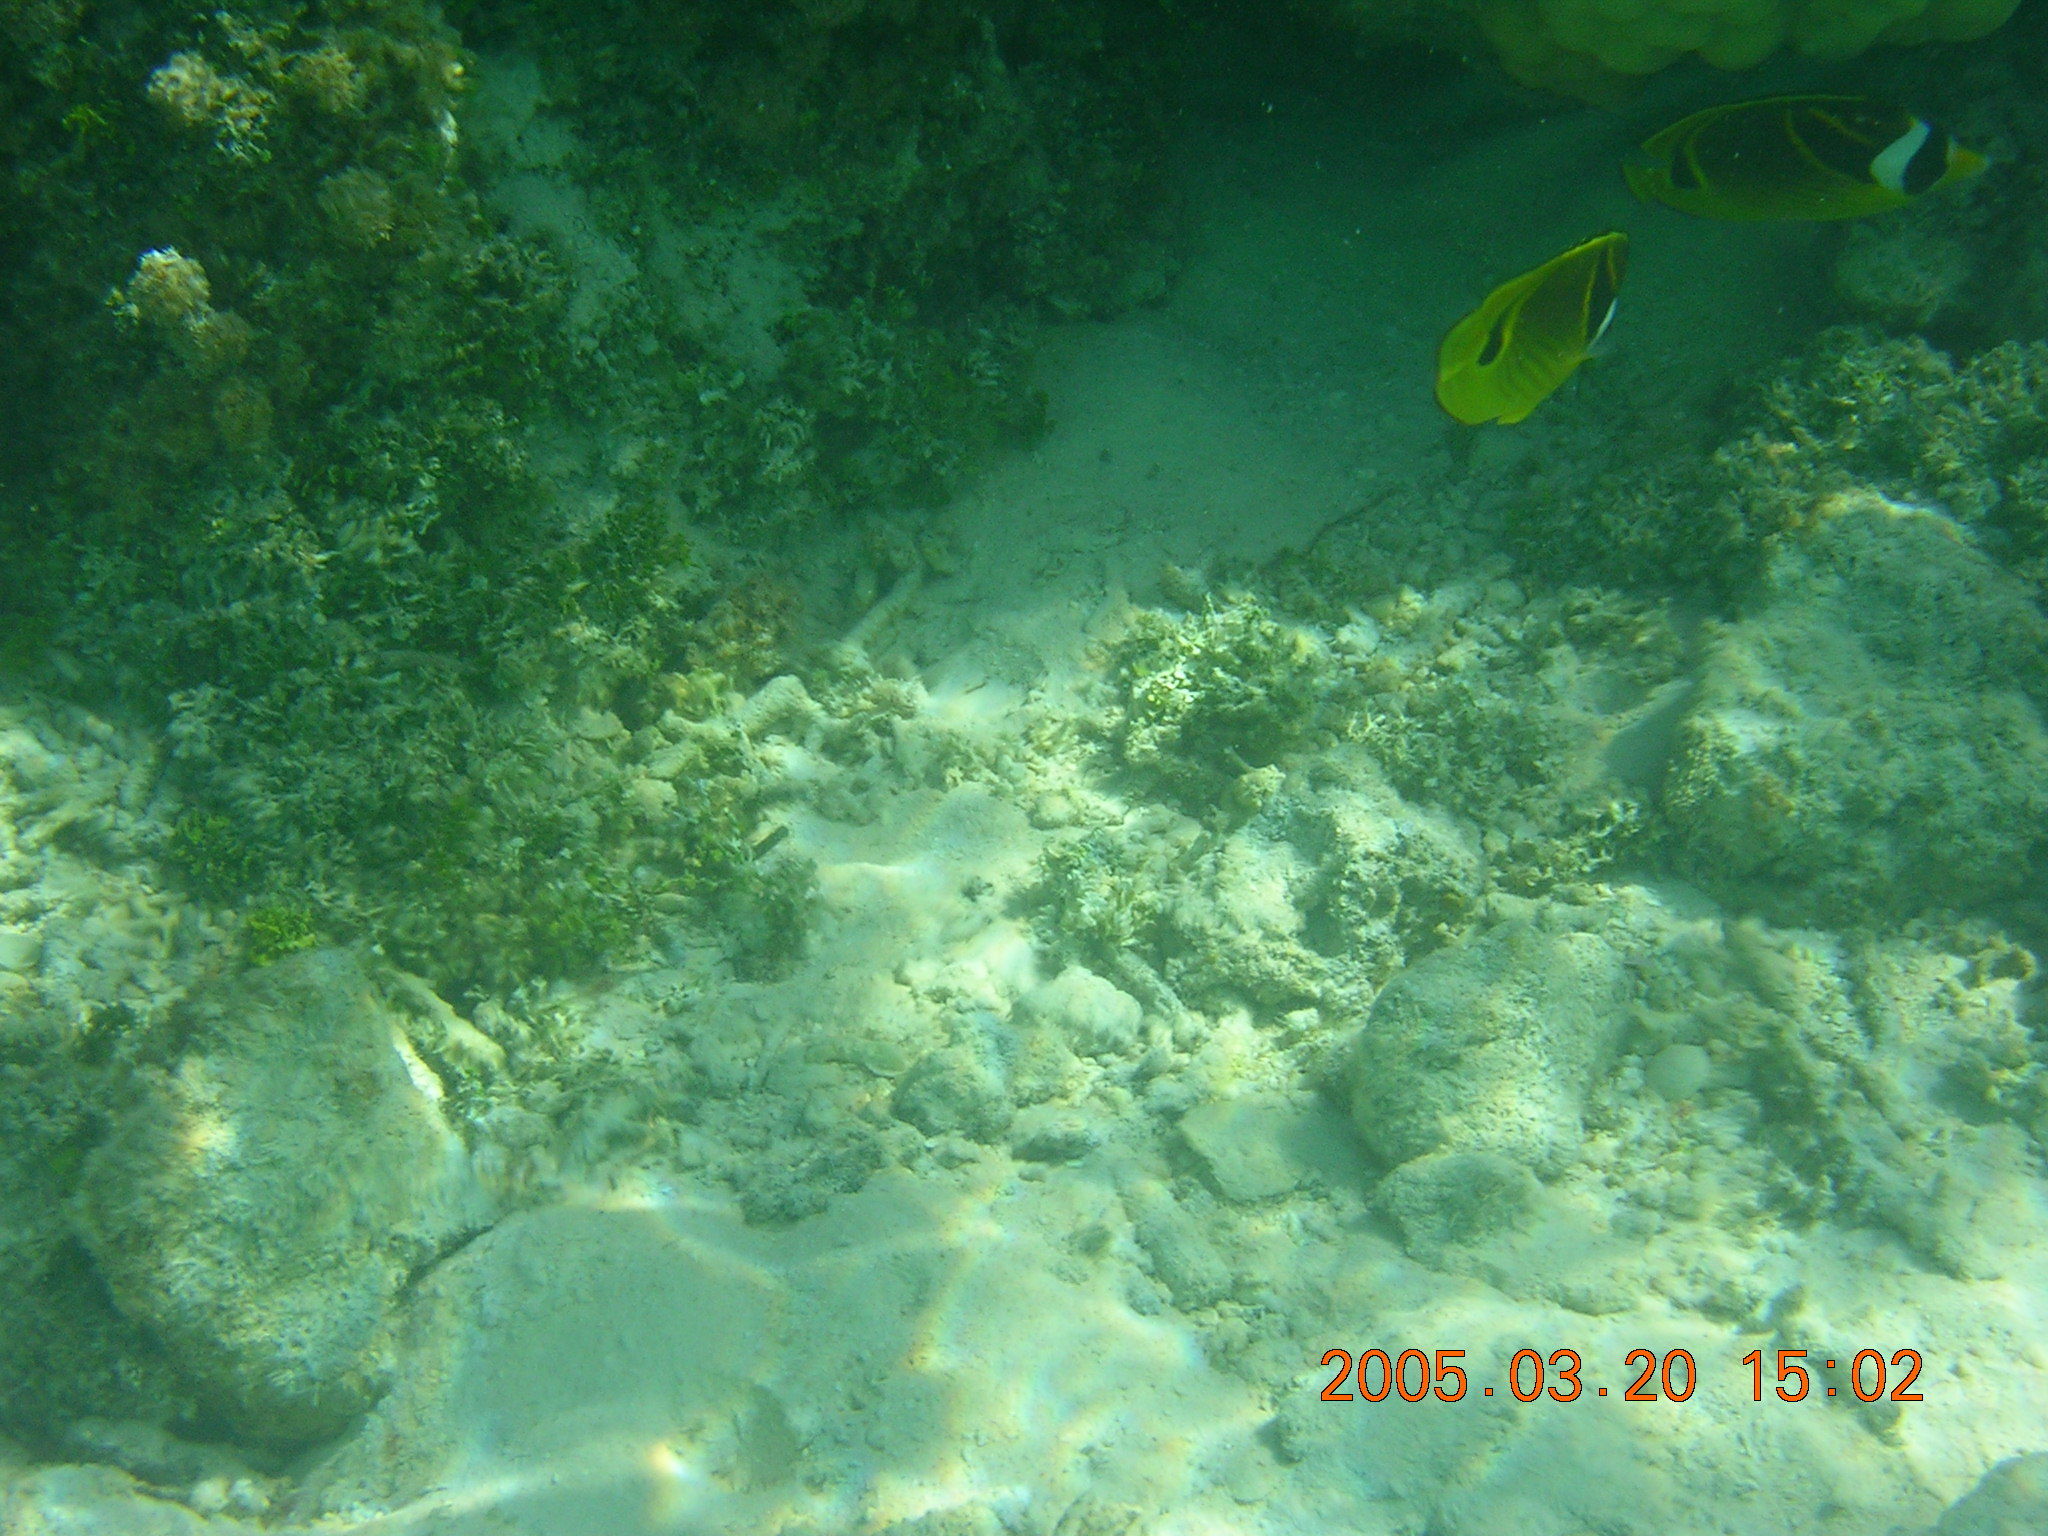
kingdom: Animalia
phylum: Chordata
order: Perciformes
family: Chaetodontidae
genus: Chaetodon
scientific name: Chaetodon lunula
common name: Raccoon butterflyfish
